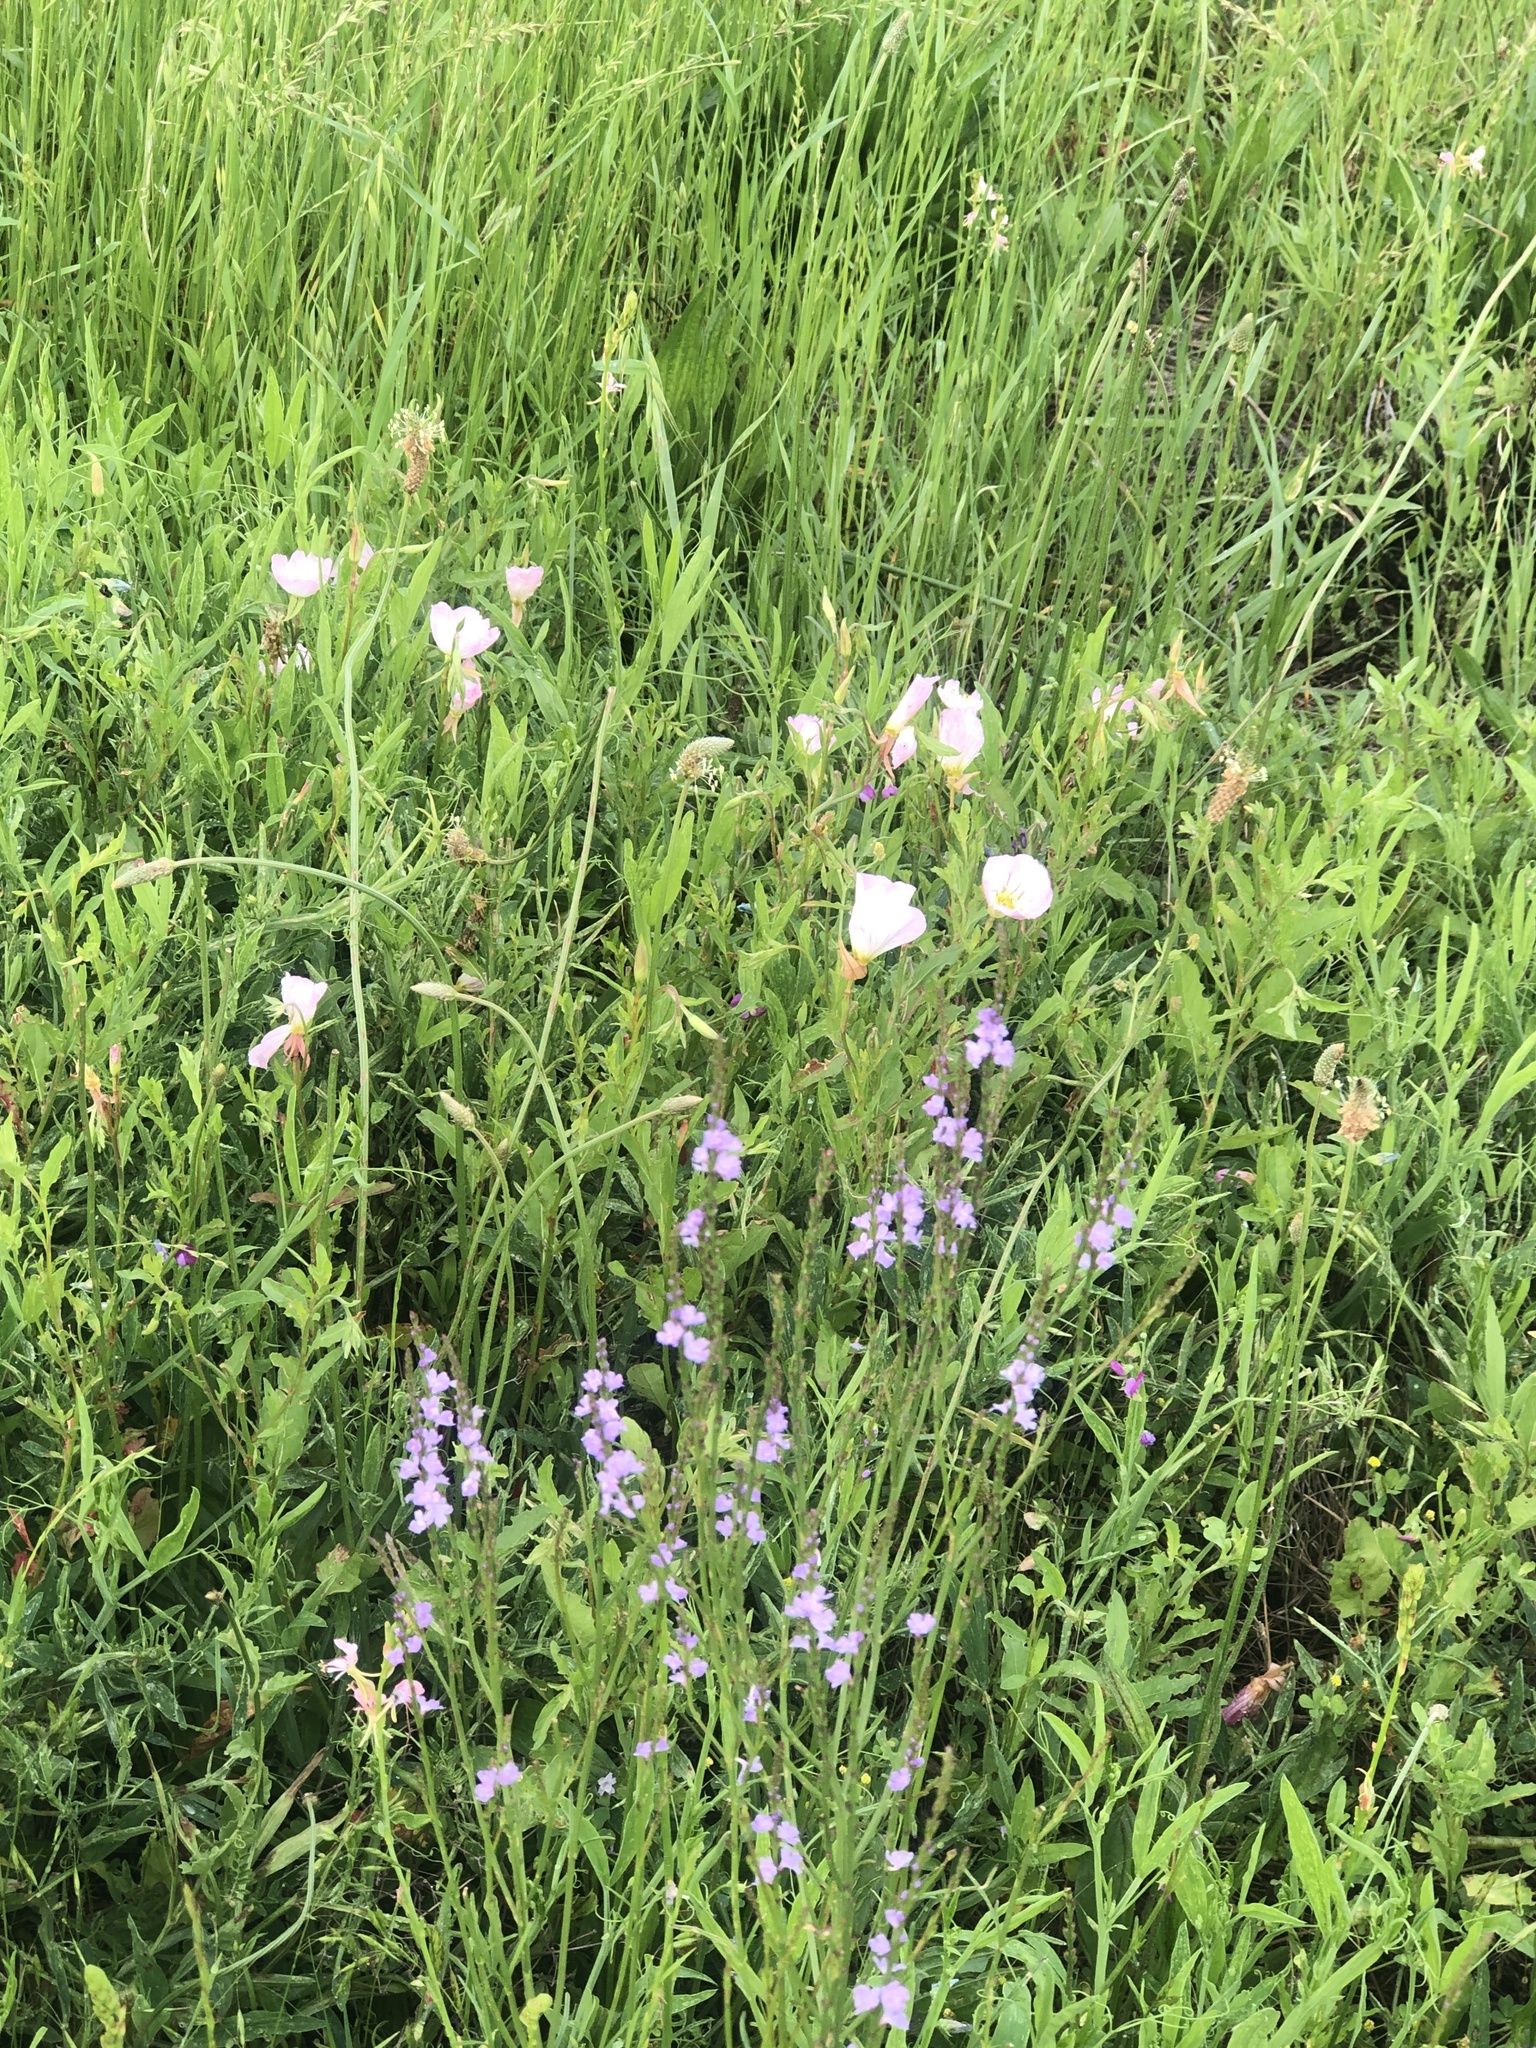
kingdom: Plantae
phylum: Tracheophyta
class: Magnoliopsida
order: Myrtales
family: Onagraceae
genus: Oenothera
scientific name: Oenothera speciosa
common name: White evening-primrose
